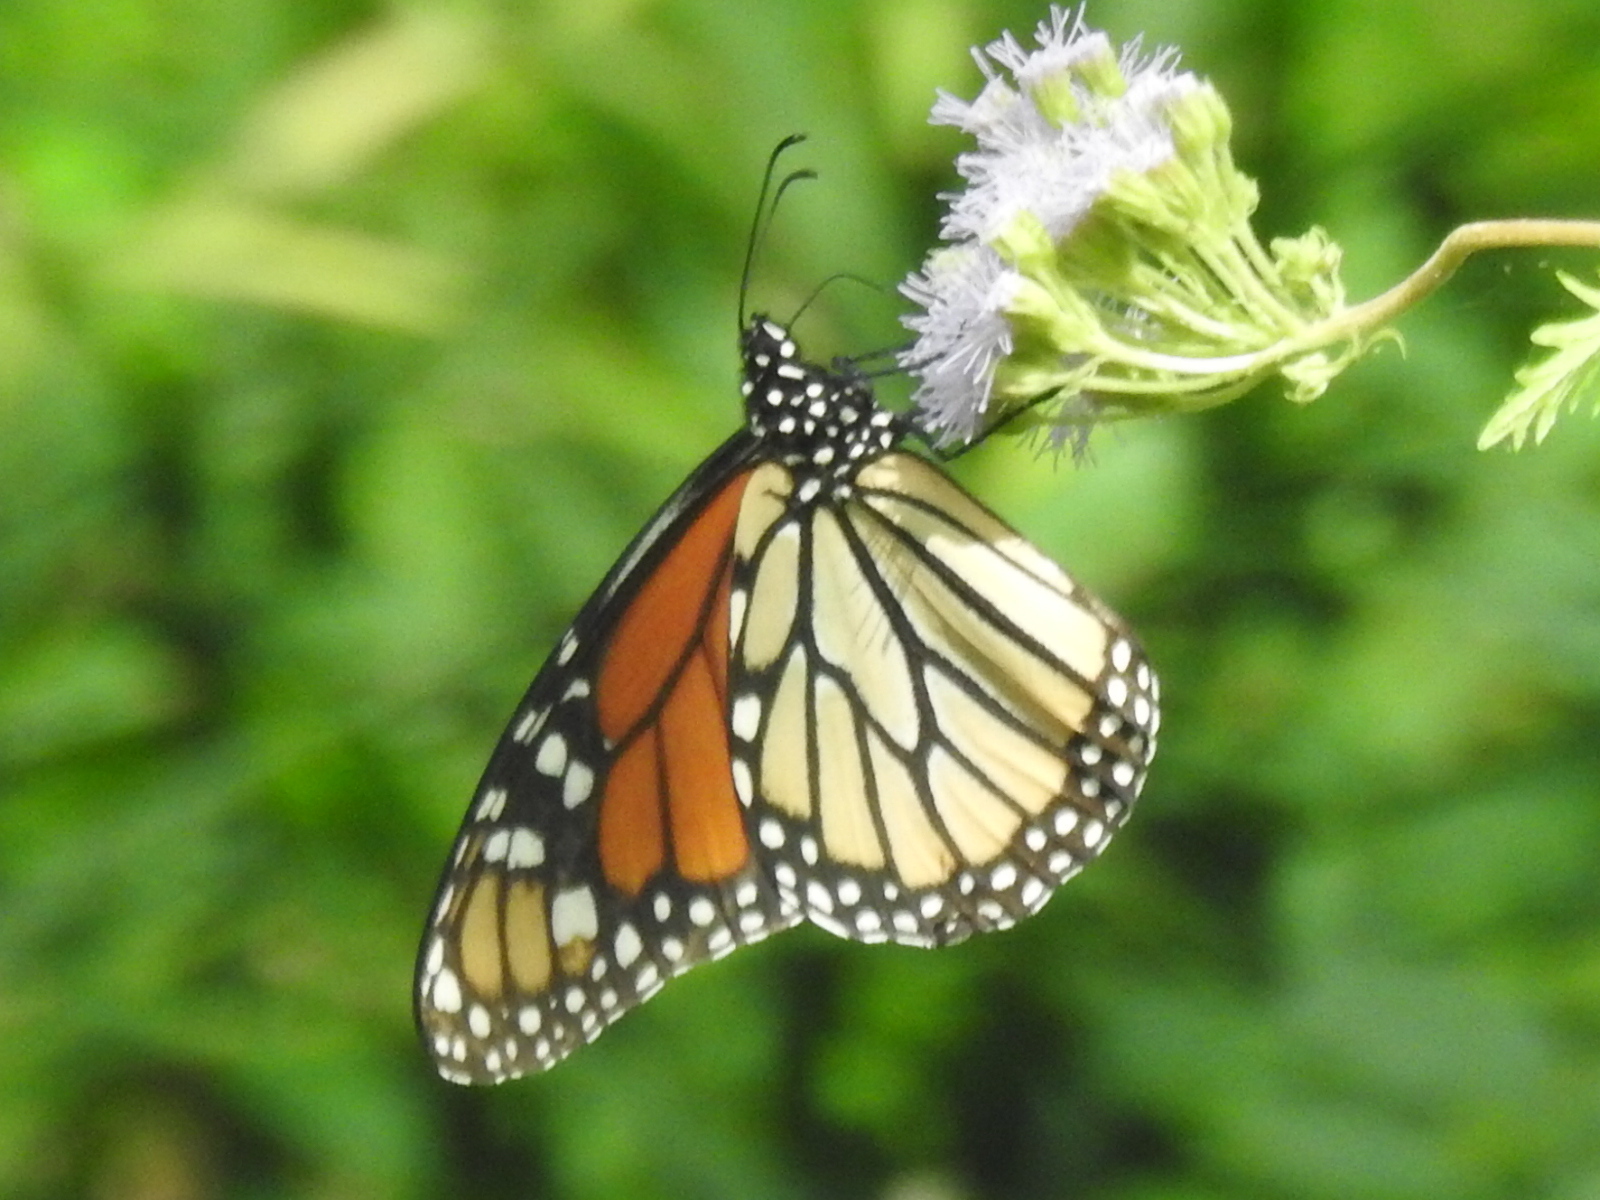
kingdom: Animalia
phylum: Arthropoda
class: Insecta
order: Lepidoptera
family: Nymphalidae
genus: Danaus
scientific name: Danaus plexippus
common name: Monarch
